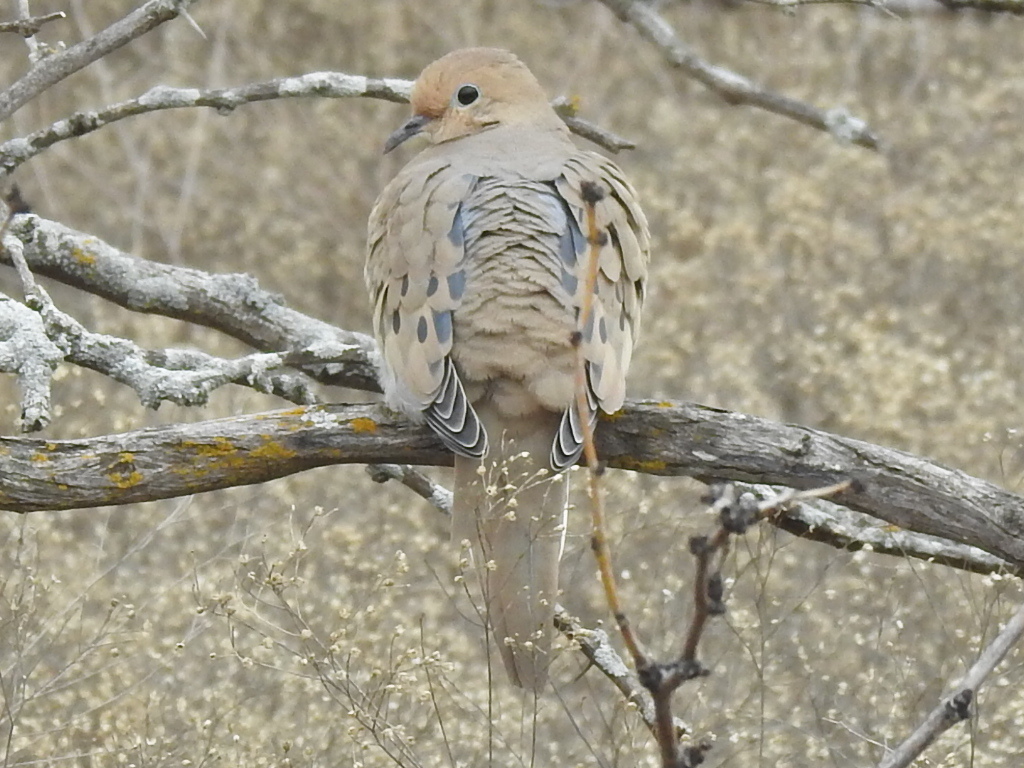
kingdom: Animalia
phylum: Chordata
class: Aves
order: Columbiformes
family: Columbidae
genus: Zenaida
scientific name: Zenaida macroura
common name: Mourning dove
